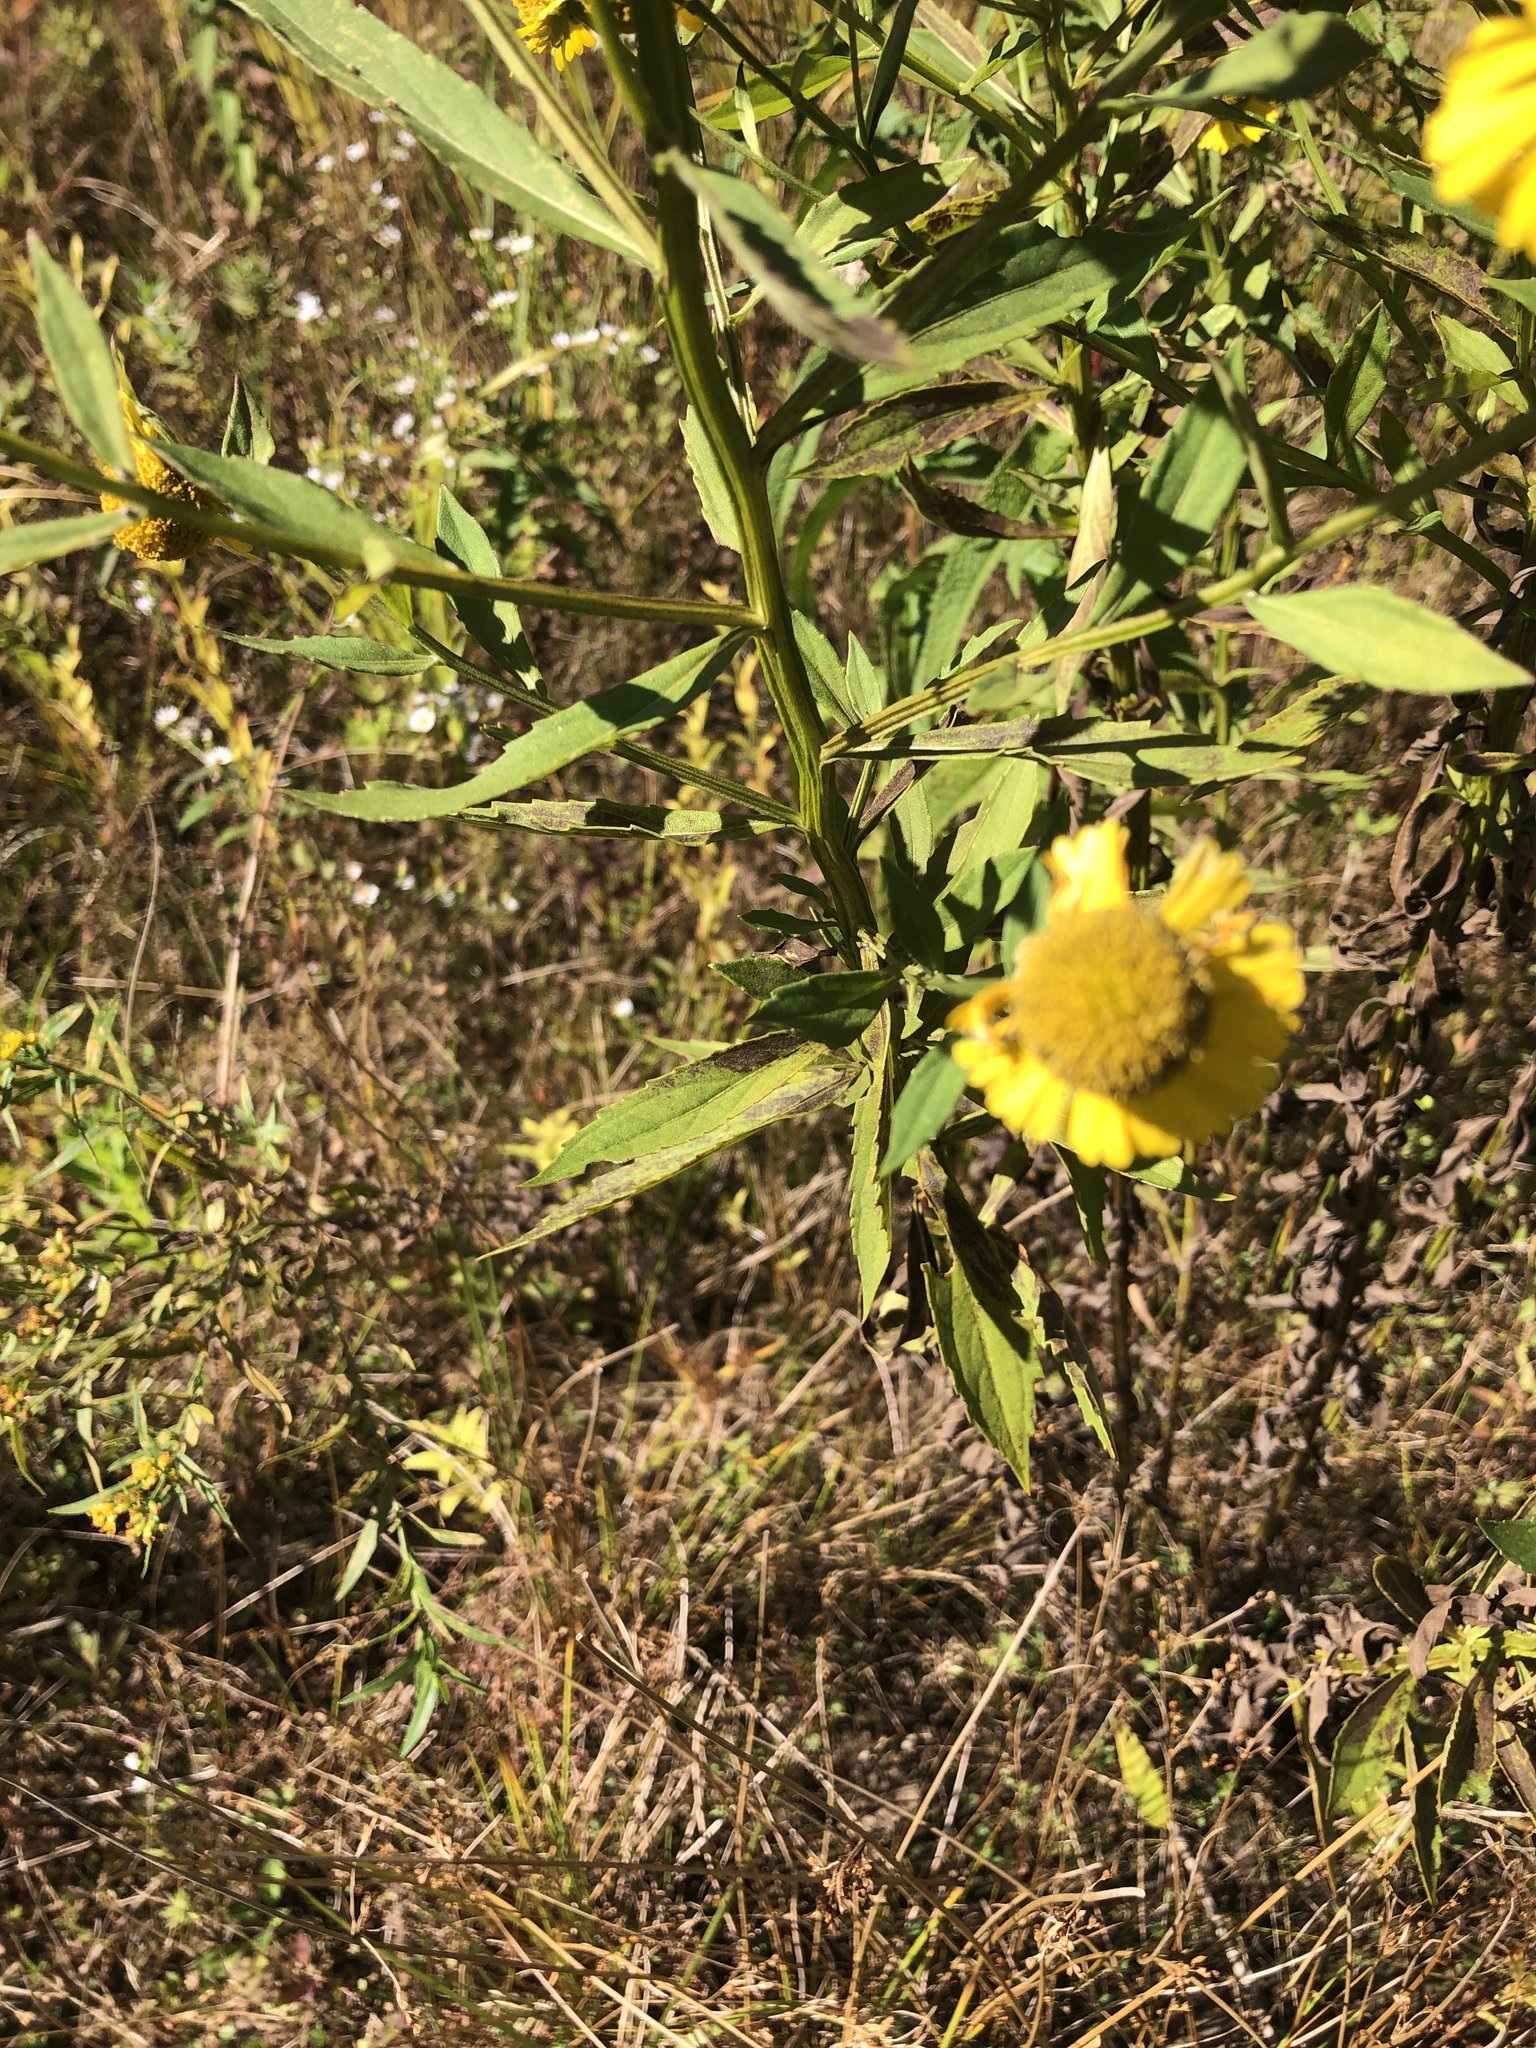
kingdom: Plantae
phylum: Tracheophyta
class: Magnoliopsida
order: Asterales
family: Asteraceae
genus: Helenium
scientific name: Helenium autumnale
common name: Sneezeweed
